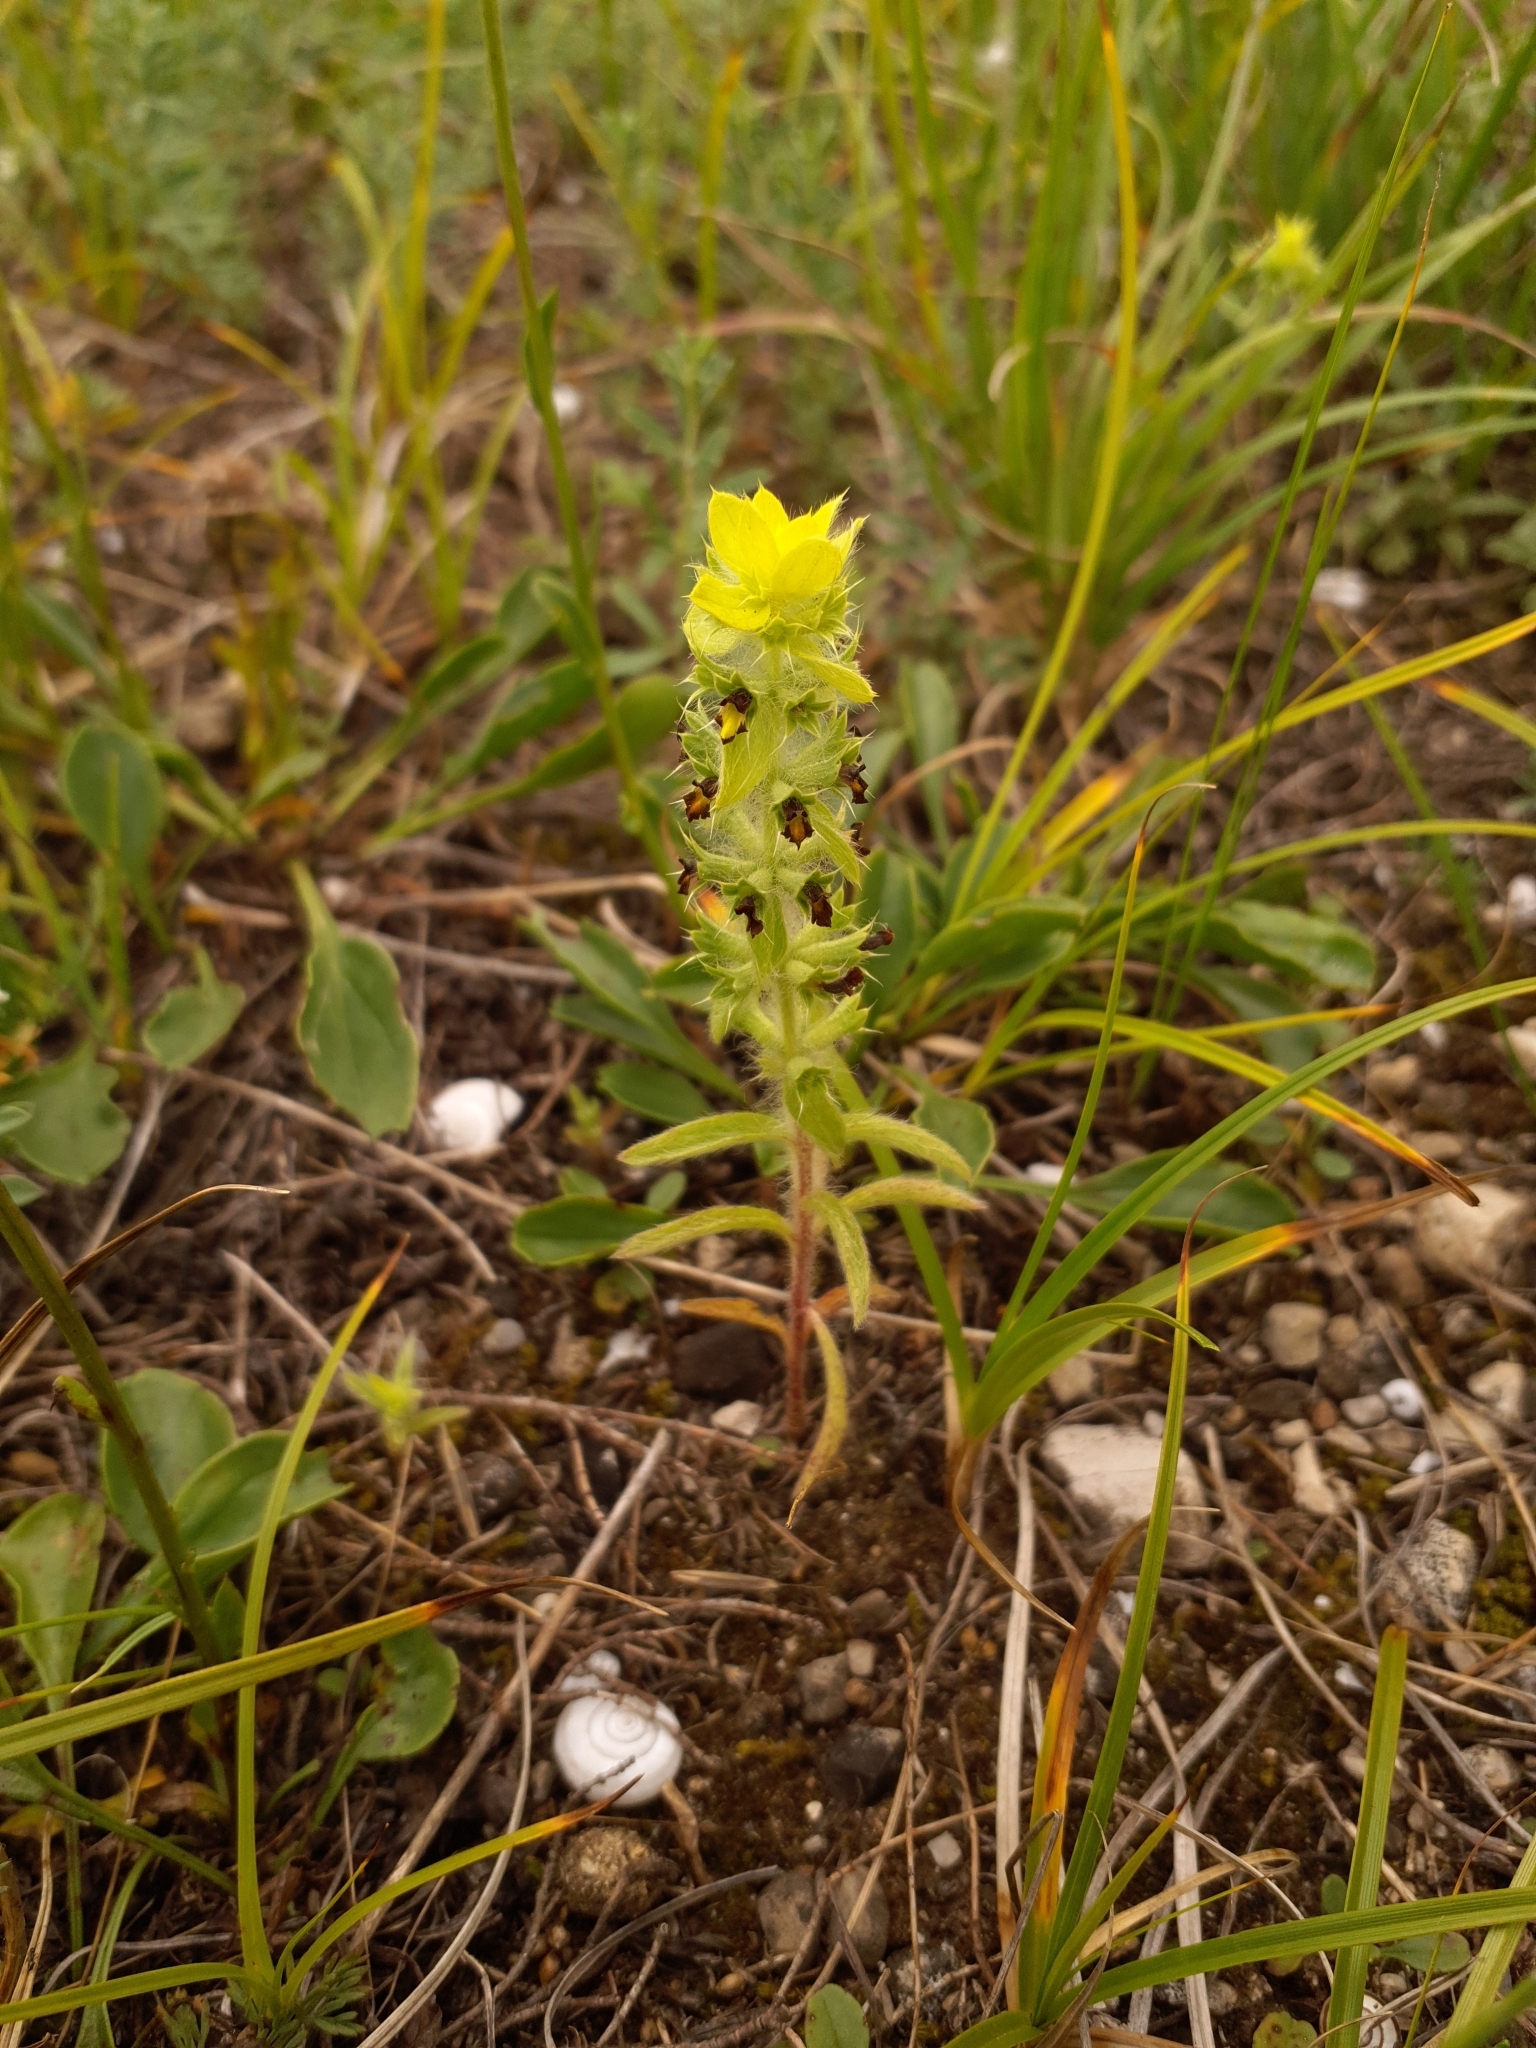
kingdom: Plantae
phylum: Tracheophyta
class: Magnoliopsida
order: Lamiales
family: Lamiaceae
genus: Sideritis
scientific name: Sideritis montana
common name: Mountain ironwort
